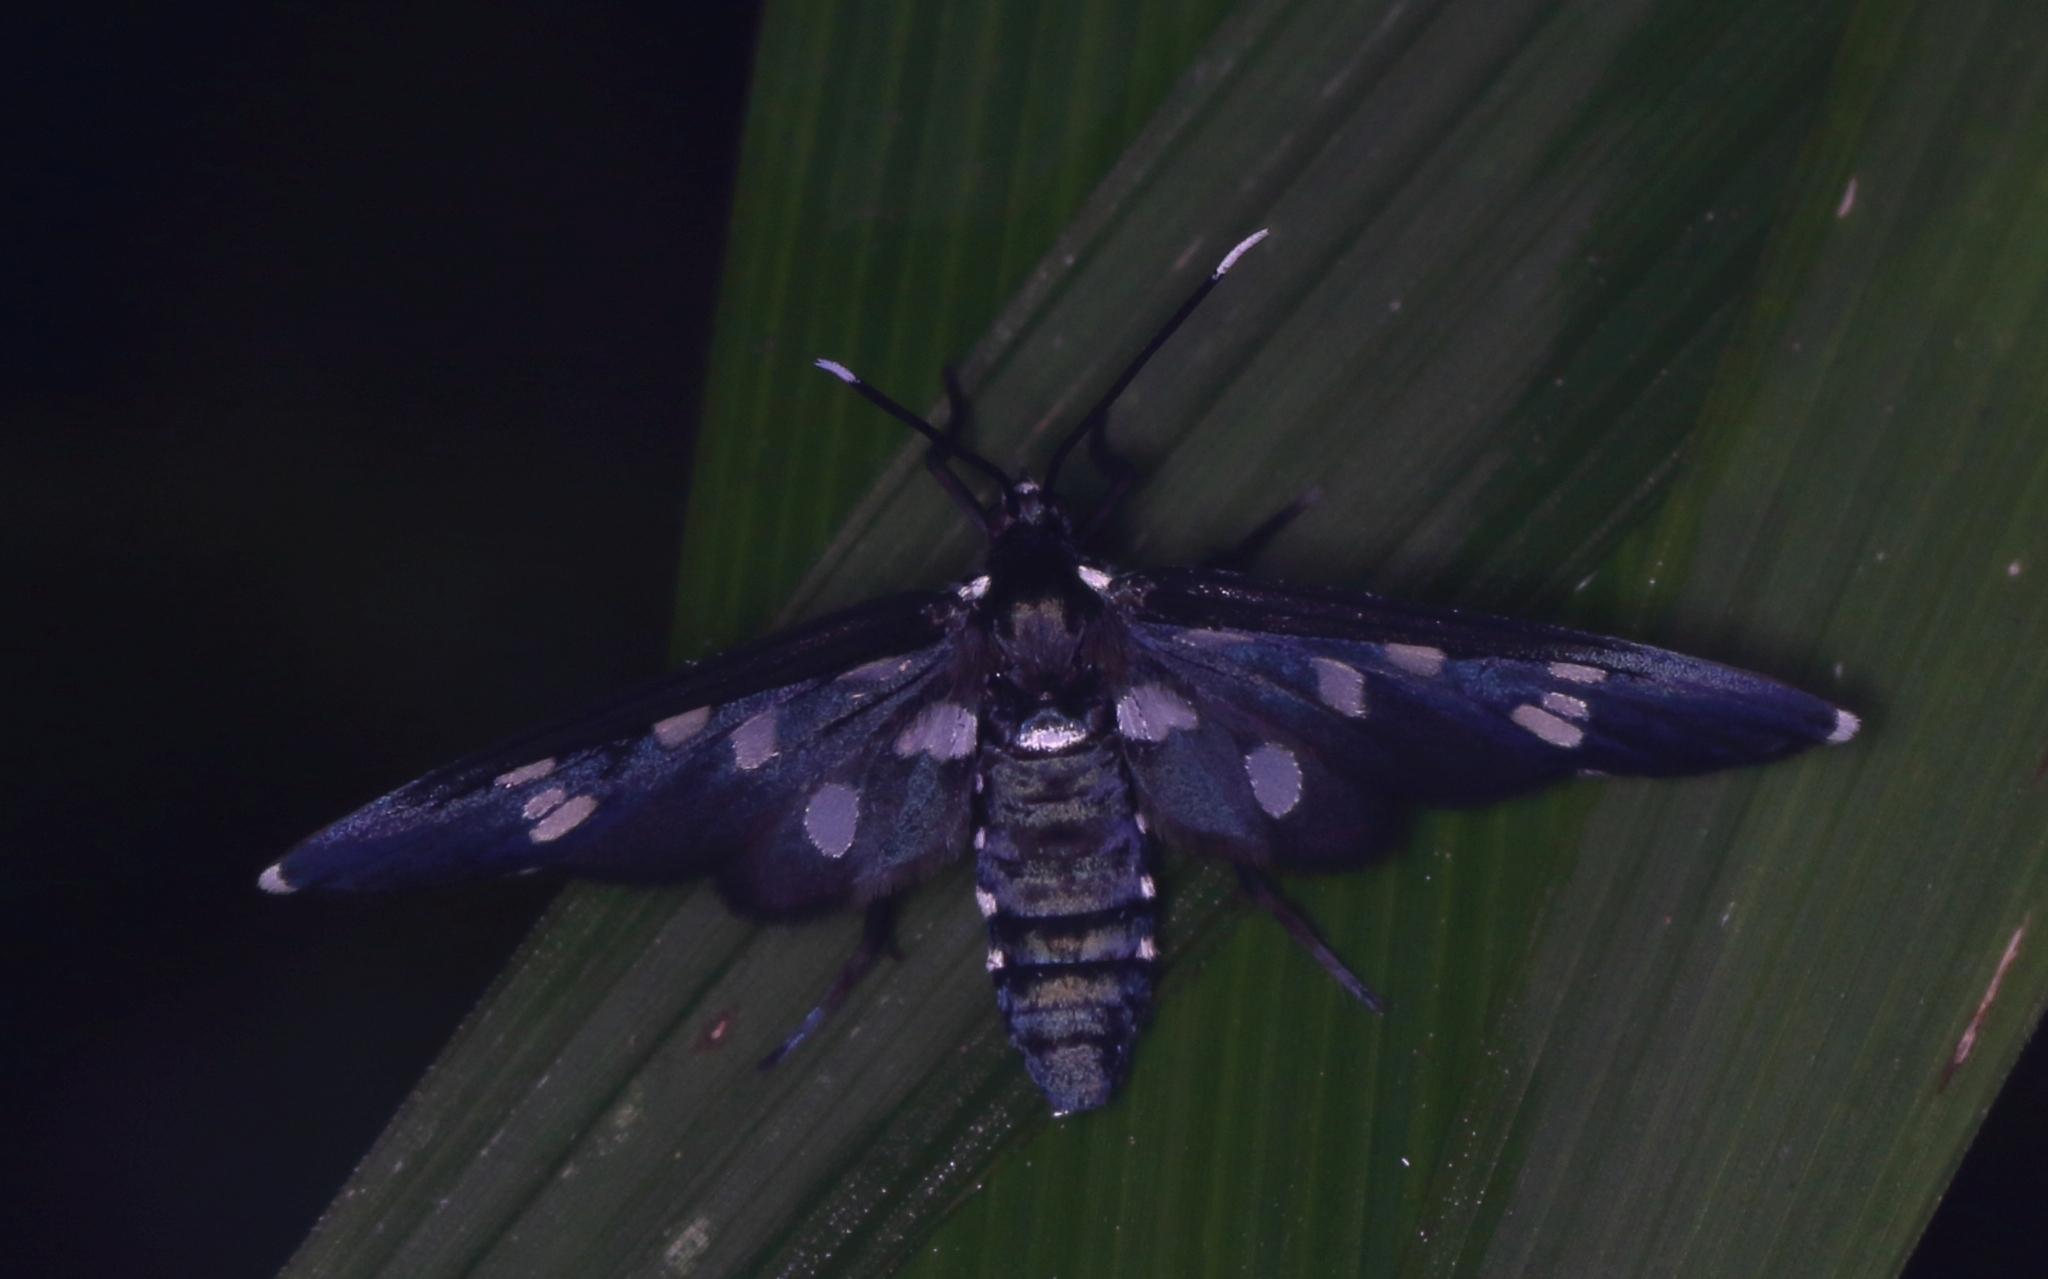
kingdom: Animalia
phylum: Arthropoda
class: Insecta
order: Lepidoptera
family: Erebidae
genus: Ceryx
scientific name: Ceryx longipes
